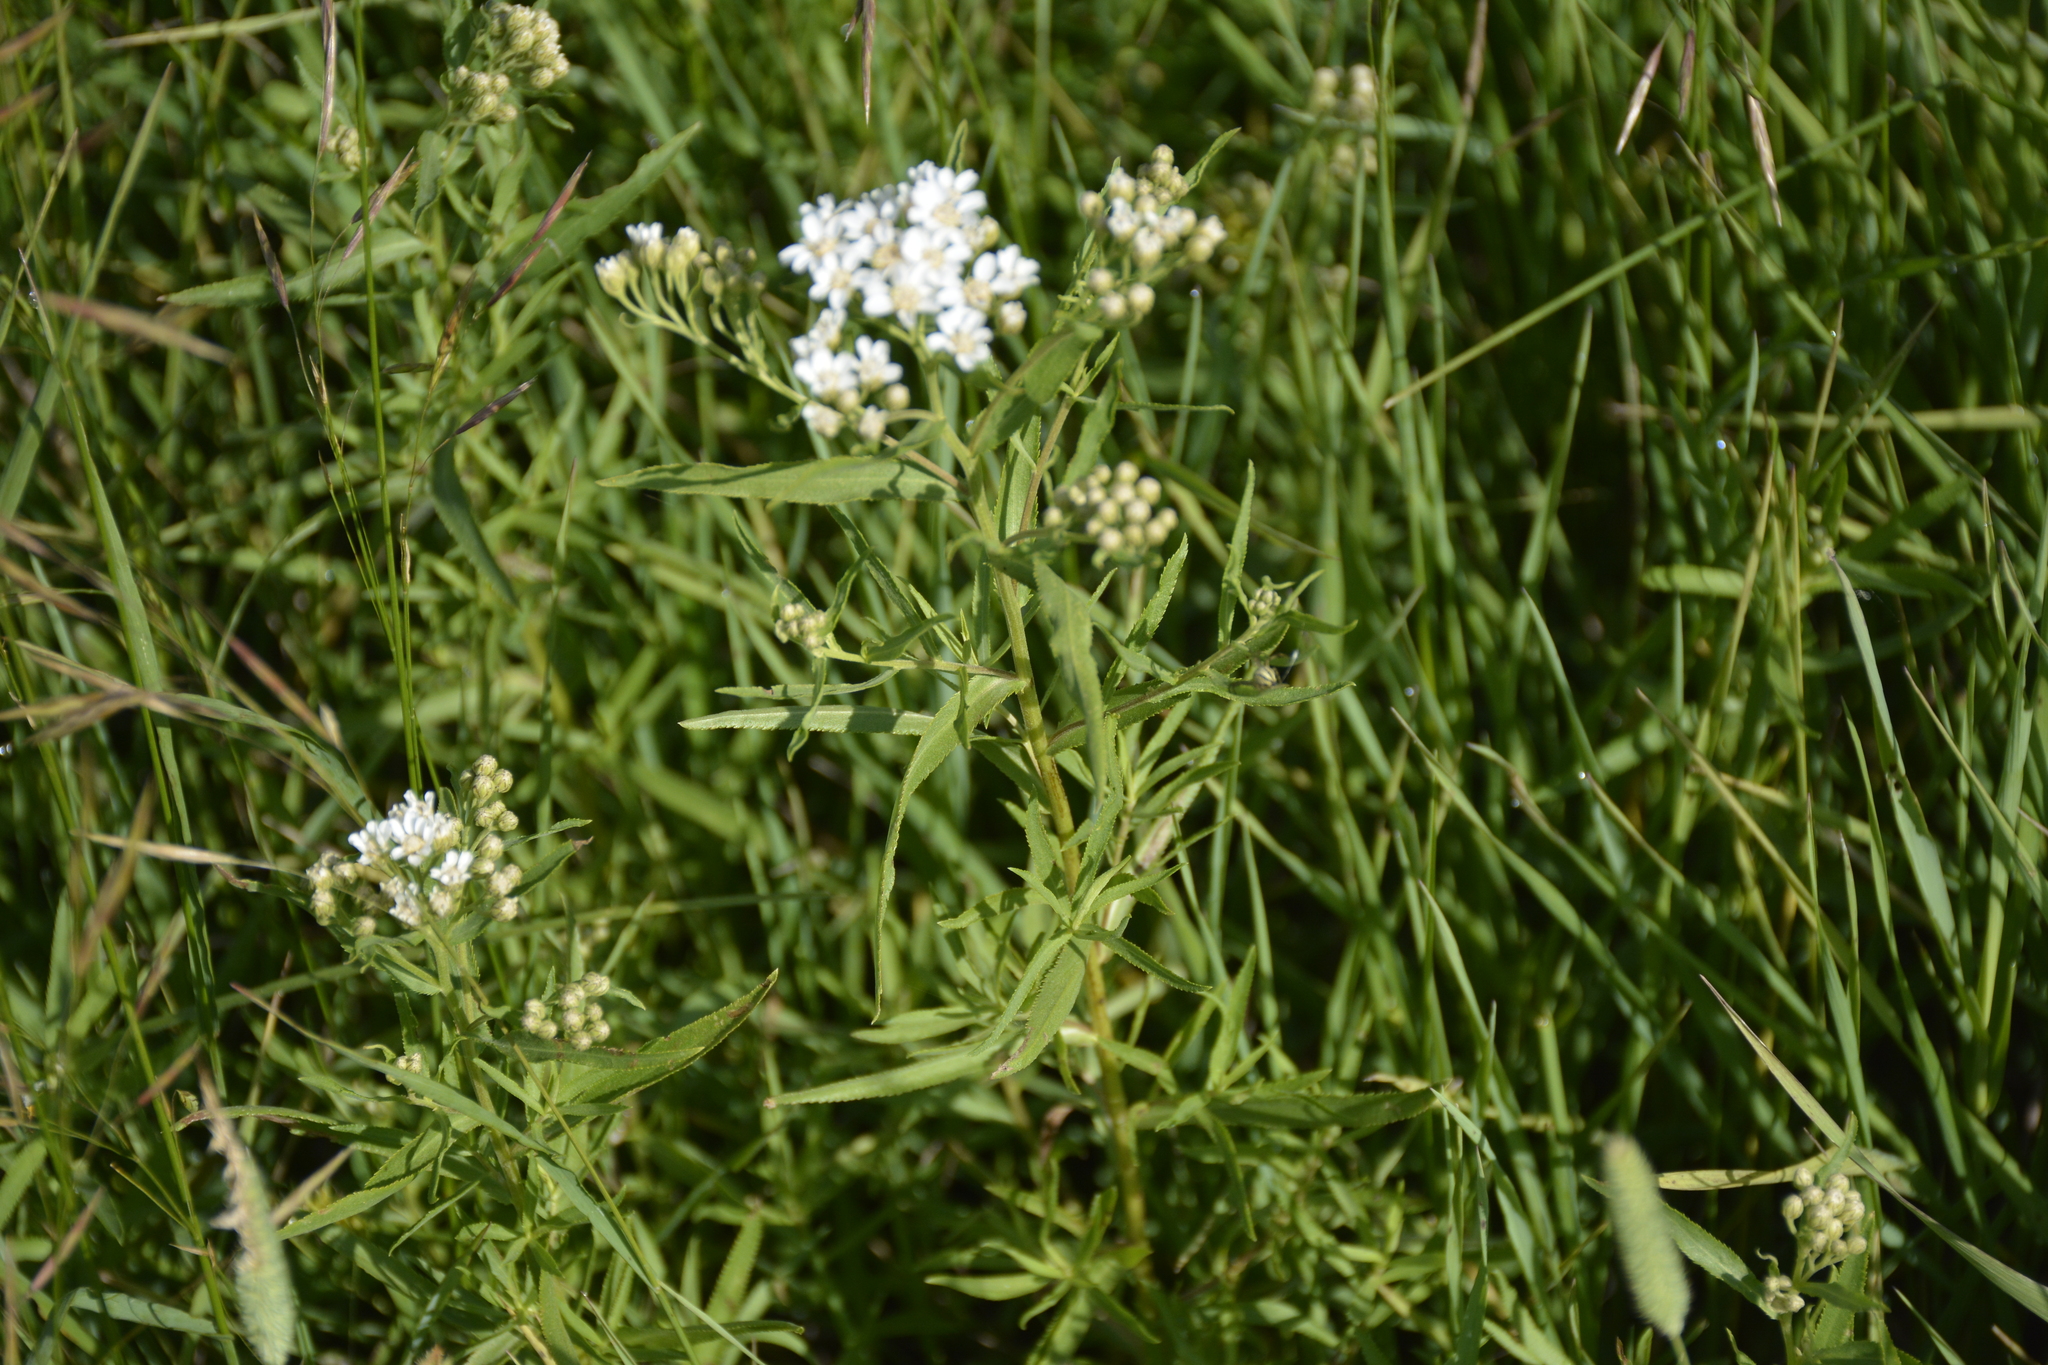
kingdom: Plantae
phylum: Tracheophyta
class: Magnoliopsida
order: Asterales
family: Asteraceae
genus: Achillea
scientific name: Achillea salicifolia
